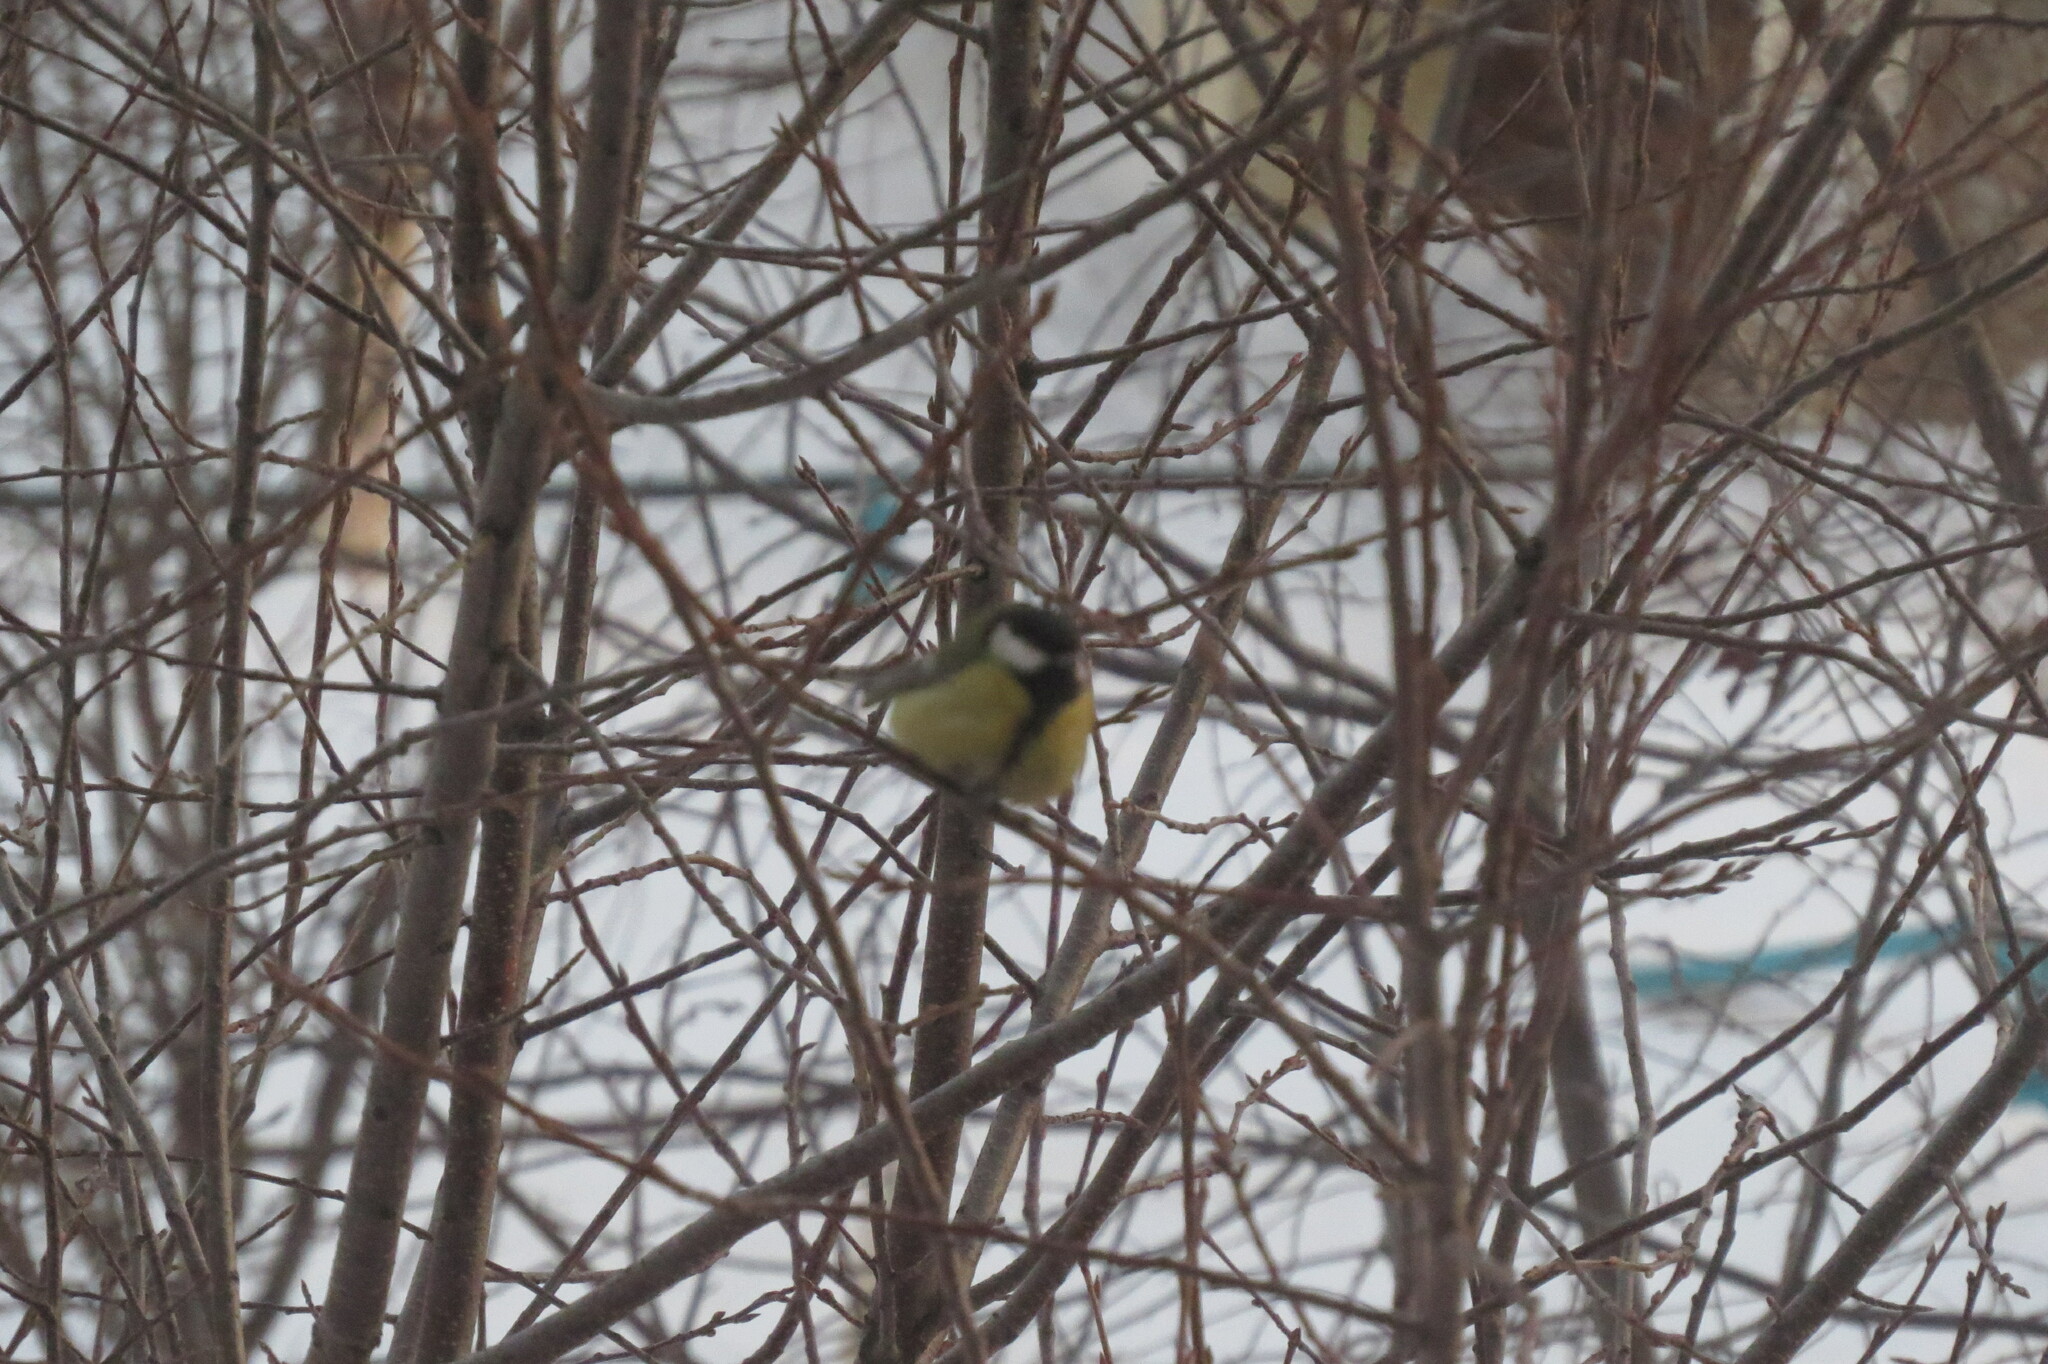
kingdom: Animalia
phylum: Chordata
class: Aves
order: Passeriformes
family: Paridae
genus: Parus
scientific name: Parus major
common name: Great tit
